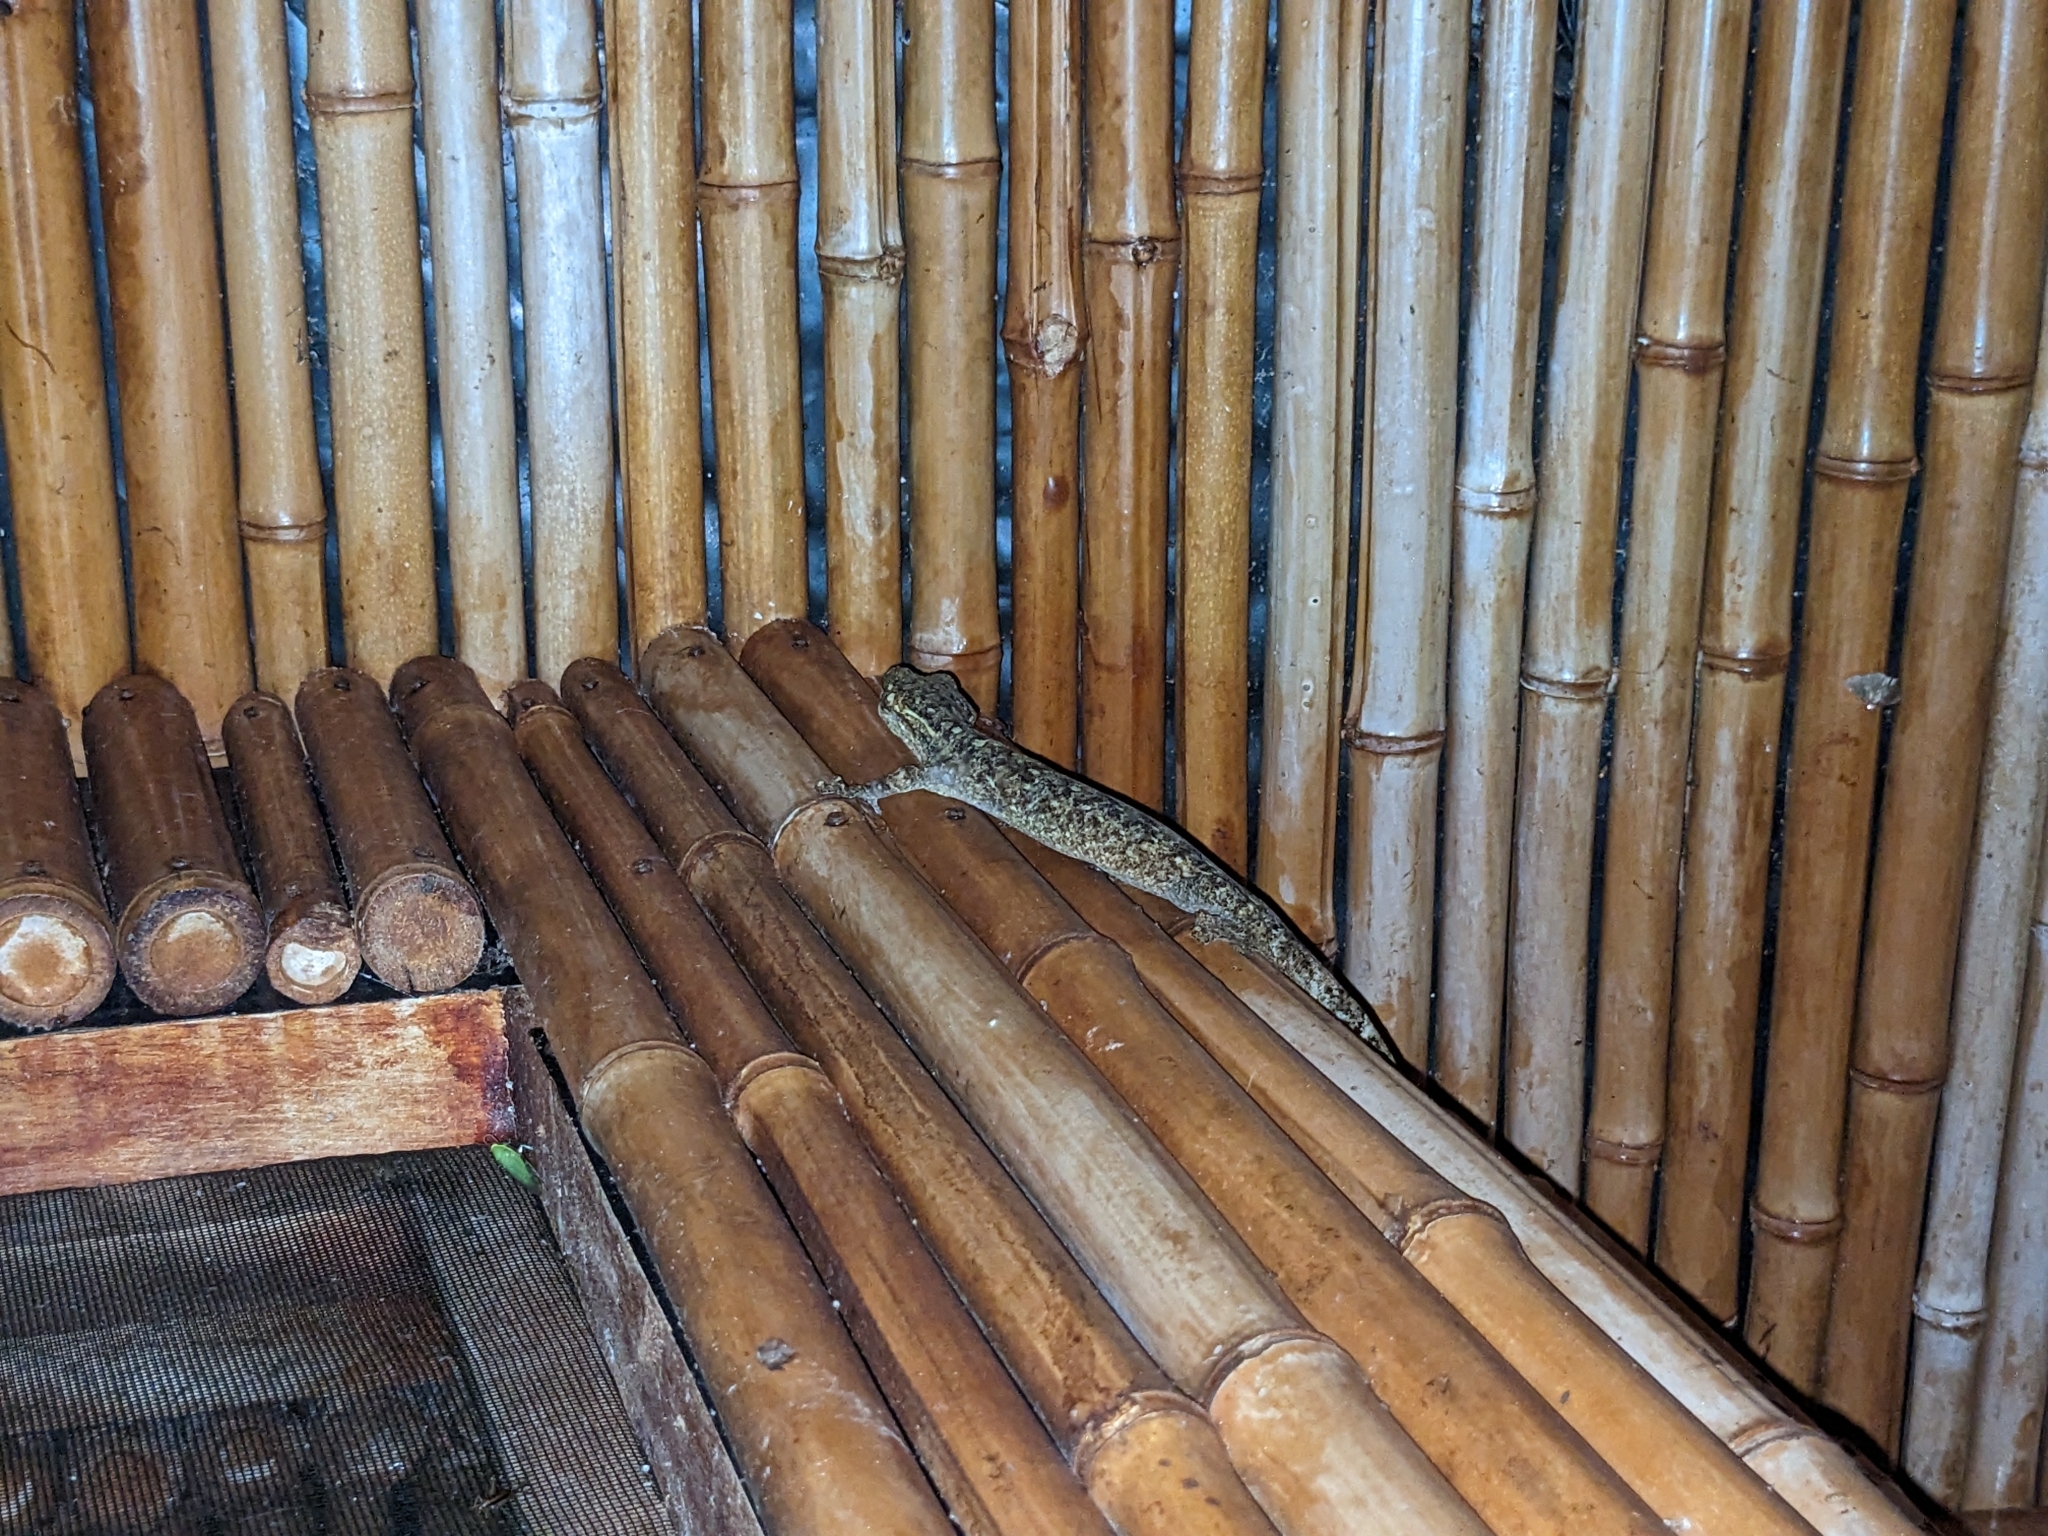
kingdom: Animalia
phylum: Chordata
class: Squamata
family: Phyllodactylidae
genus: Thecadactylus
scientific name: Thecadactylus rapicauda
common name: Turnip-tailed gecko
